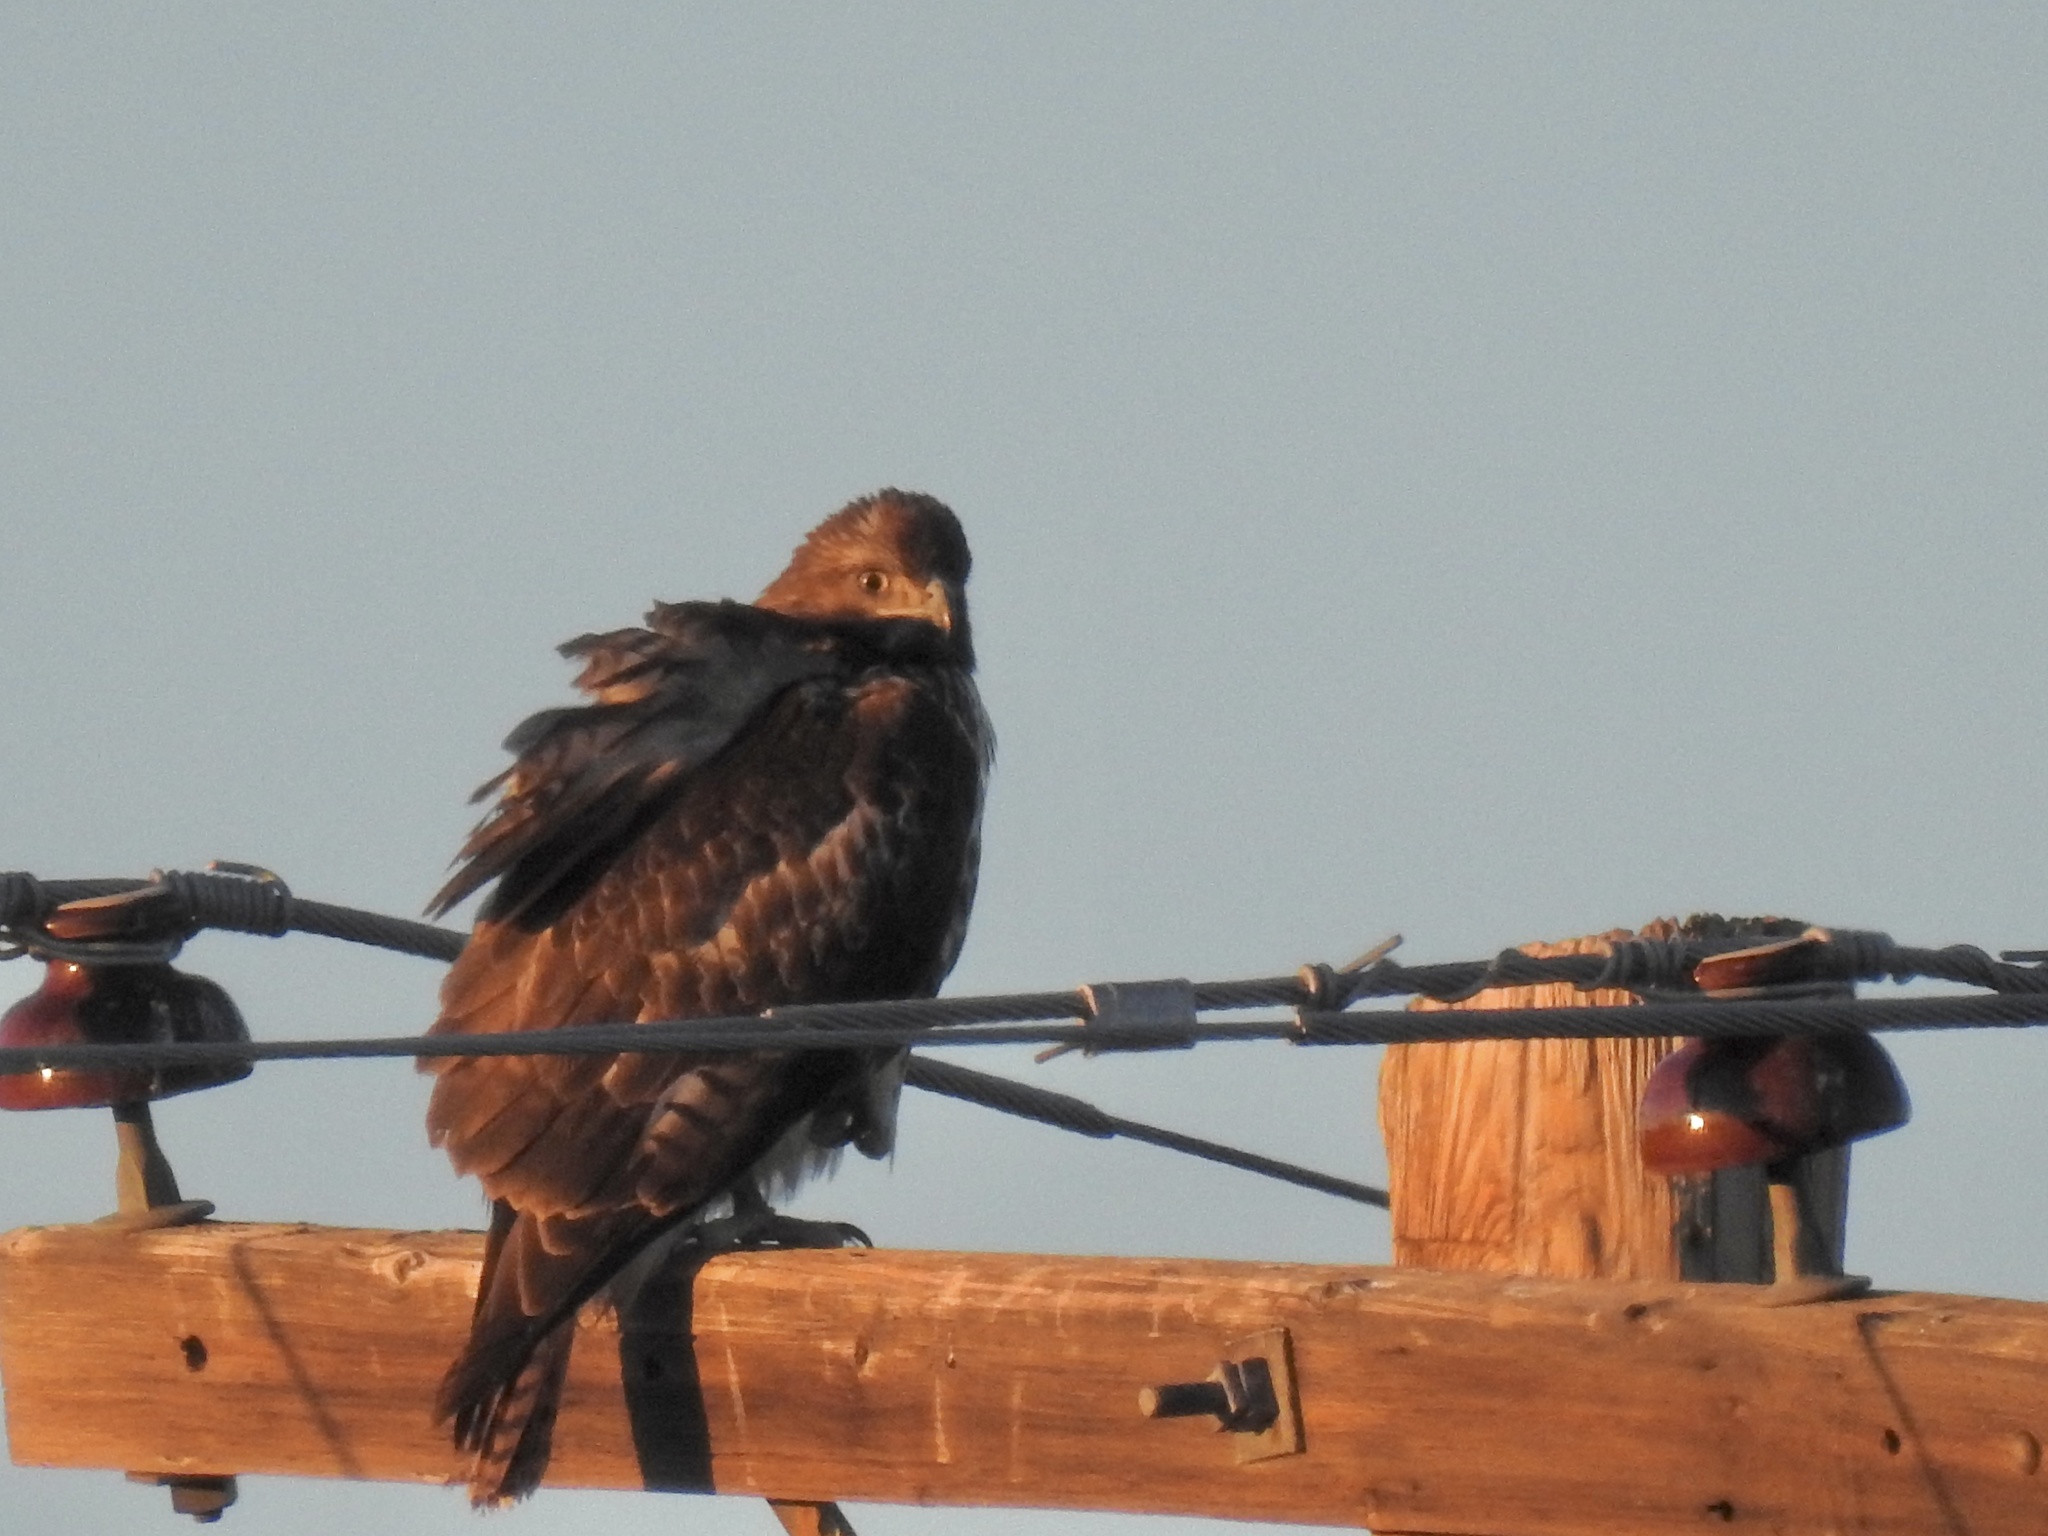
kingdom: Animalia
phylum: Chordata
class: Aves
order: Accipitriformes
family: Accipitridae
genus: Buteo
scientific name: Buteo jamaicensis
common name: Red-tailed hawk
